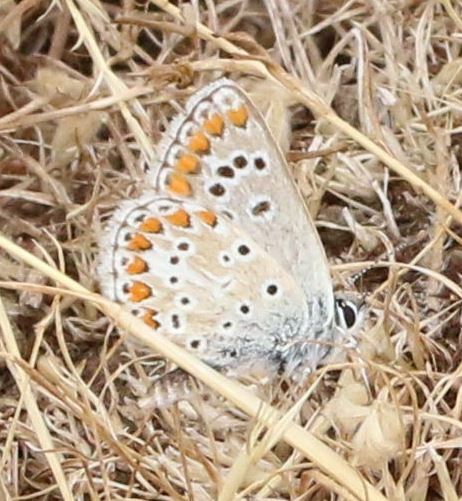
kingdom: Animalia
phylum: Arthropoda
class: Insecta
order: Lepidoptera
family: Lycaenidae
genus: Aricia
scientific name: Aricia agestis
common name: Brown argus
